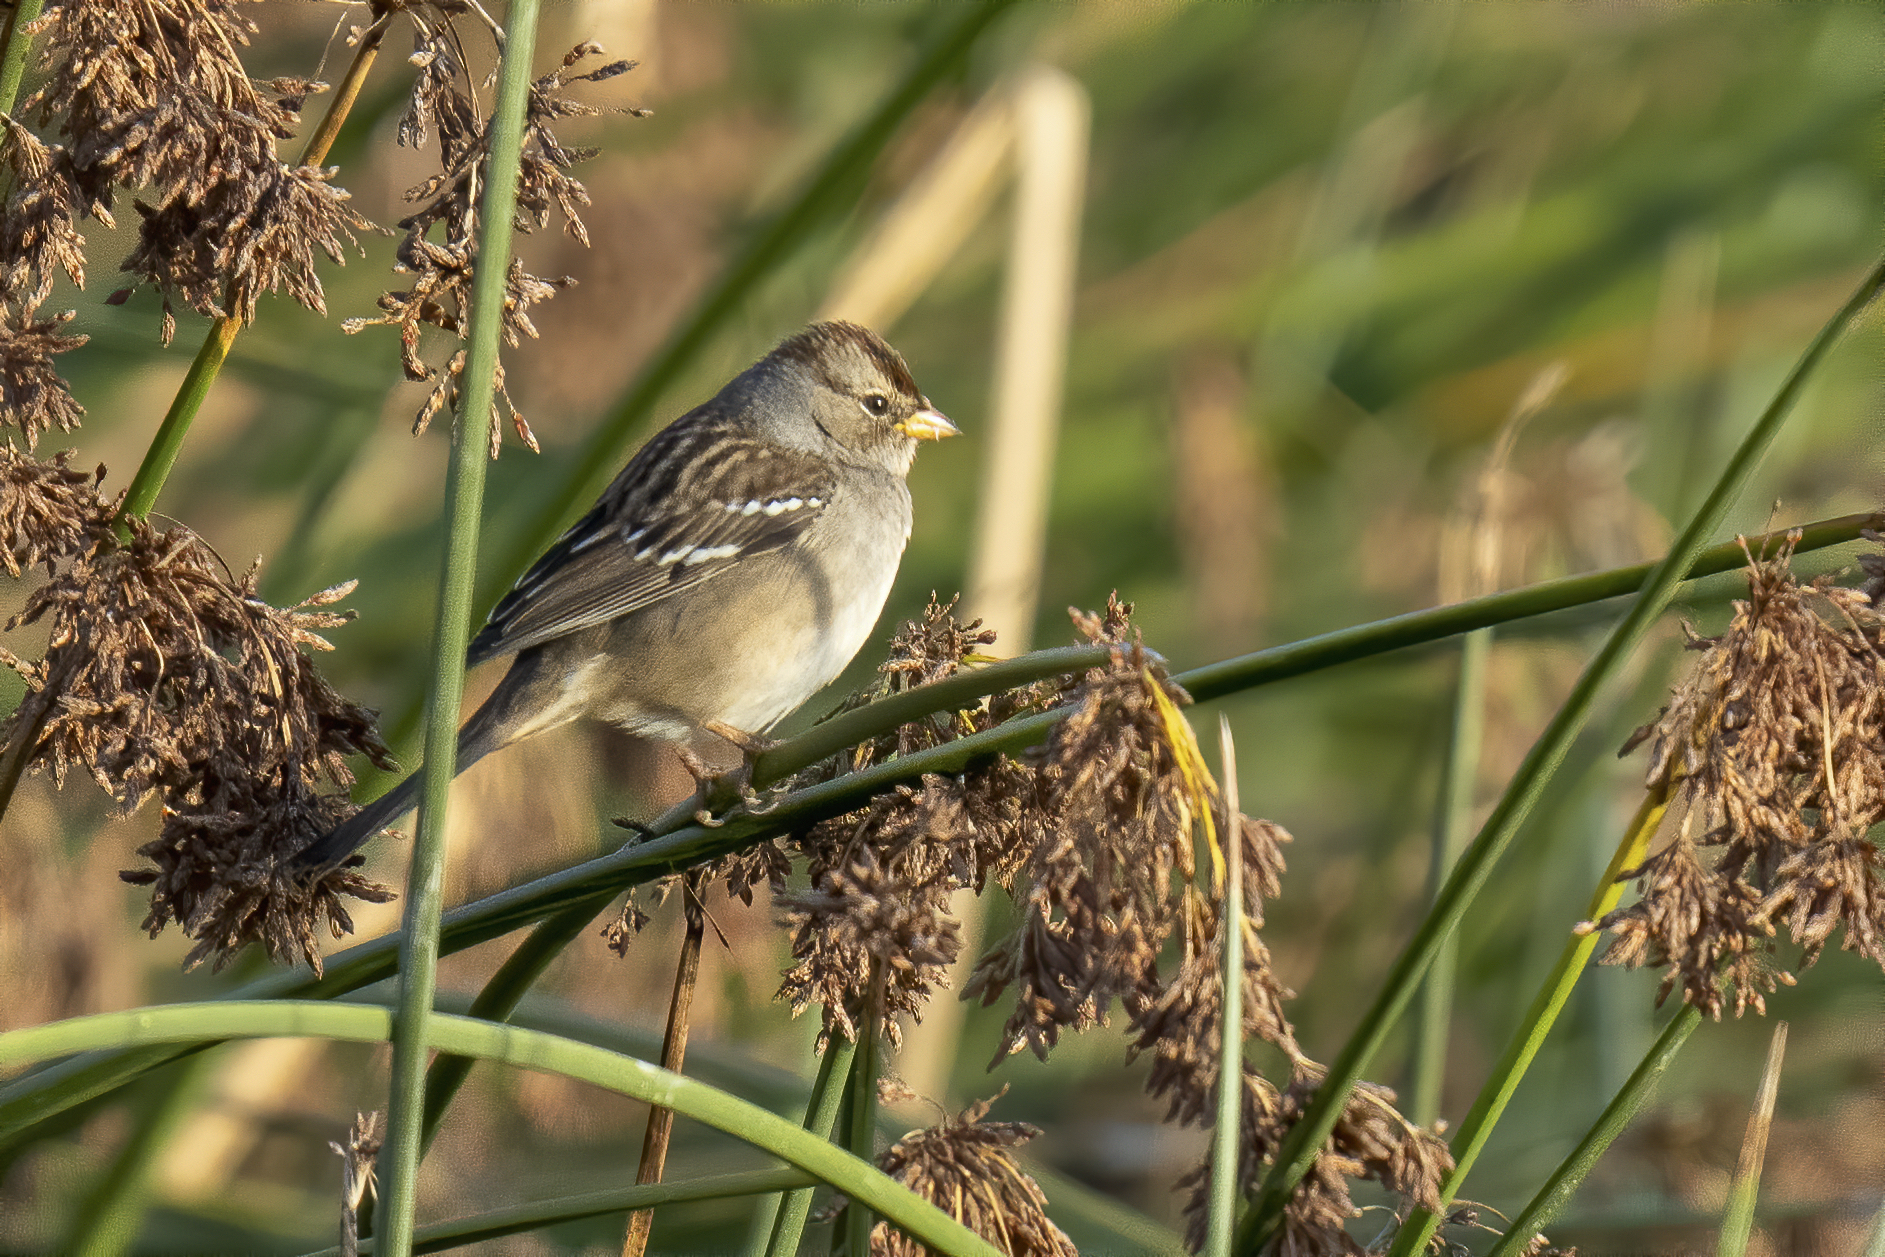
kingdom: Animalia
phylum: Chordata
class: Aves
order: Passeriformes
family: Passerellidae
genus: Zonotrichia
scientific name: Zonotrichia leucophrys
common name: White-crowned sparrow
